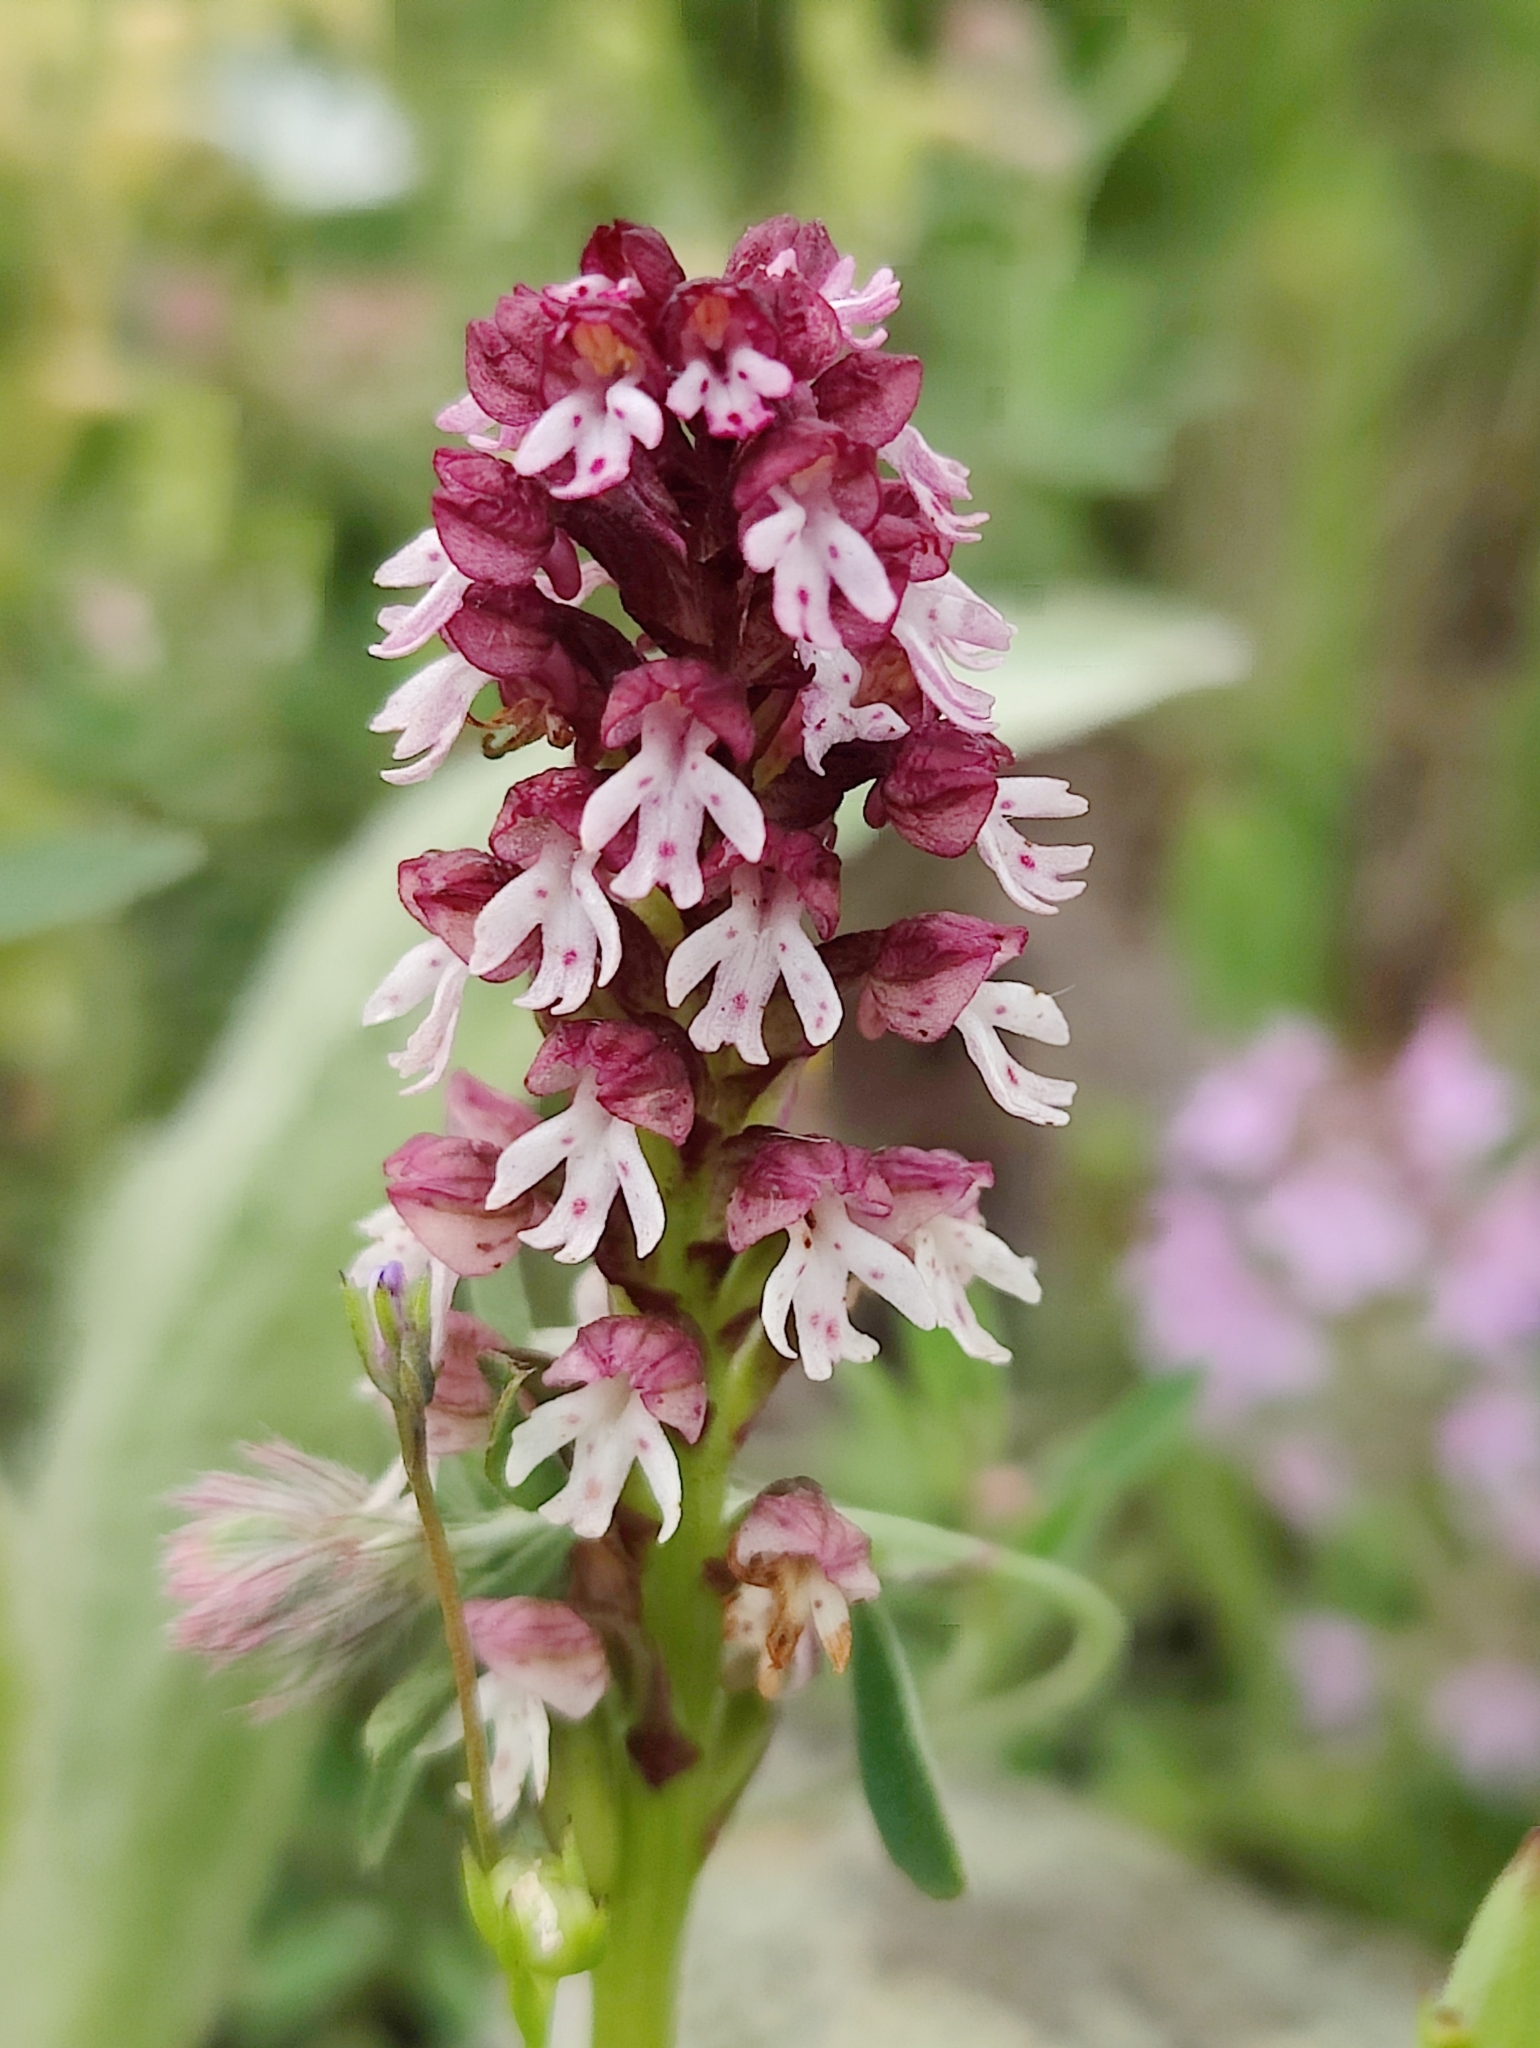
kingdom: Plantae
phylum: Tracheophyta
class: Liliopsida
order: Asparagales
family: Orchidaceae
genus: Neotinea
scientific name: Neotinea ustulata
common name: Burnt orchid
